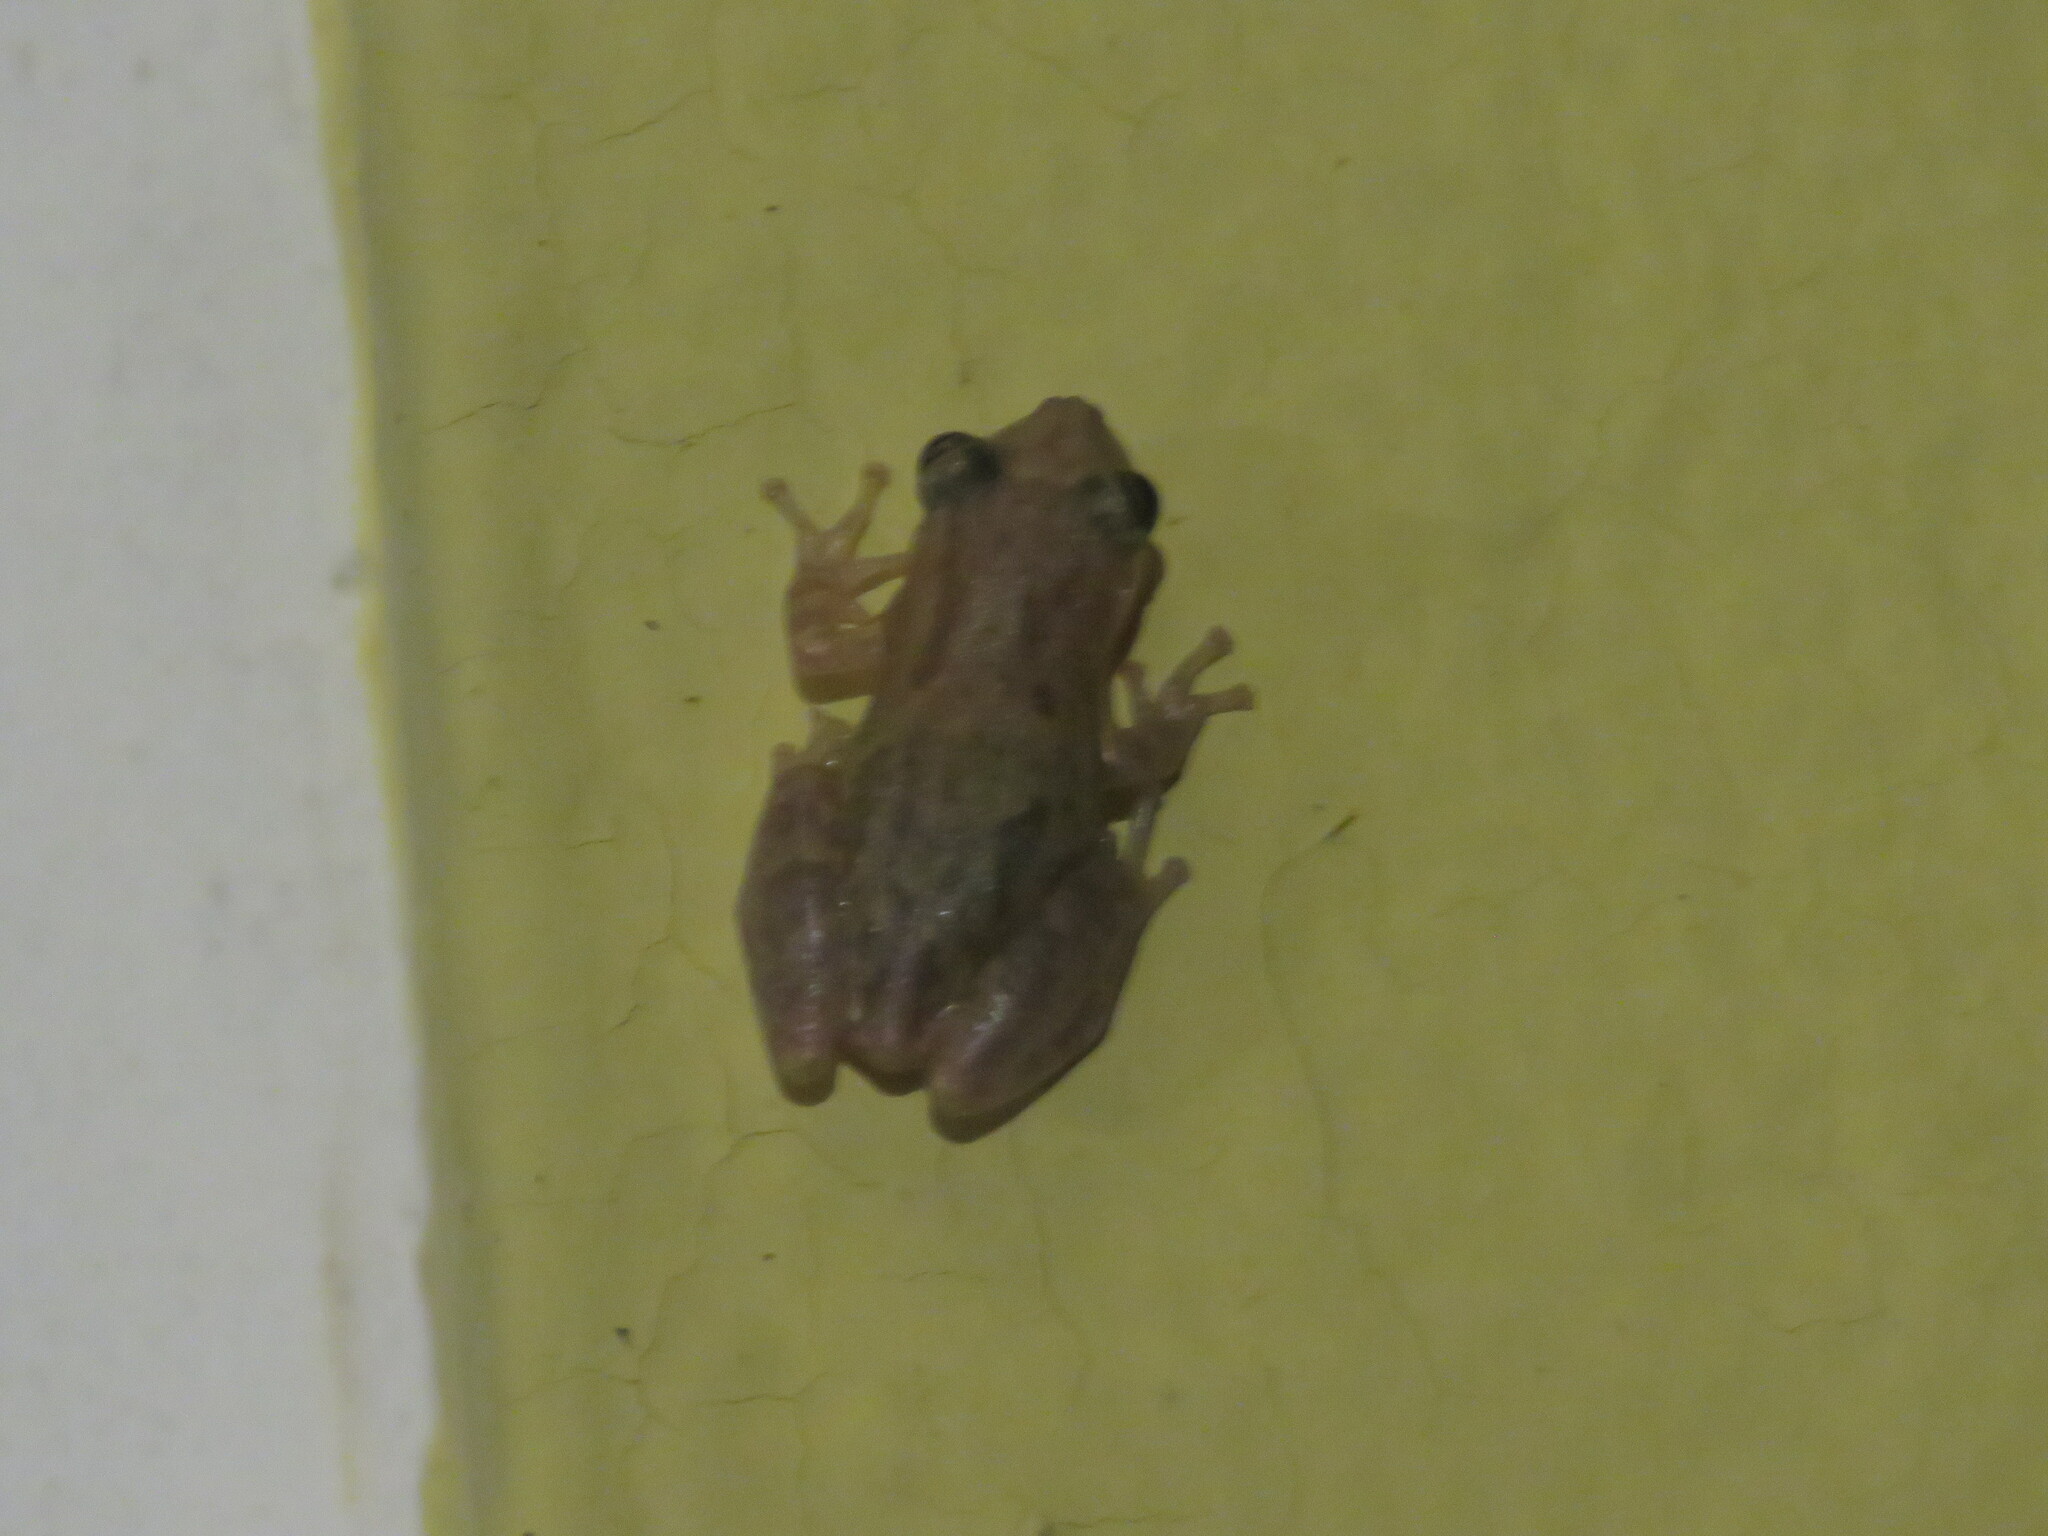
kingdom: Animalia
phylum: Chordata
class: Amphibia
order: Anura
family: Hylidae
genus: Scinax
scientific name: Scinax staufferi
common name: Stauffer's long-nosed treefrog
